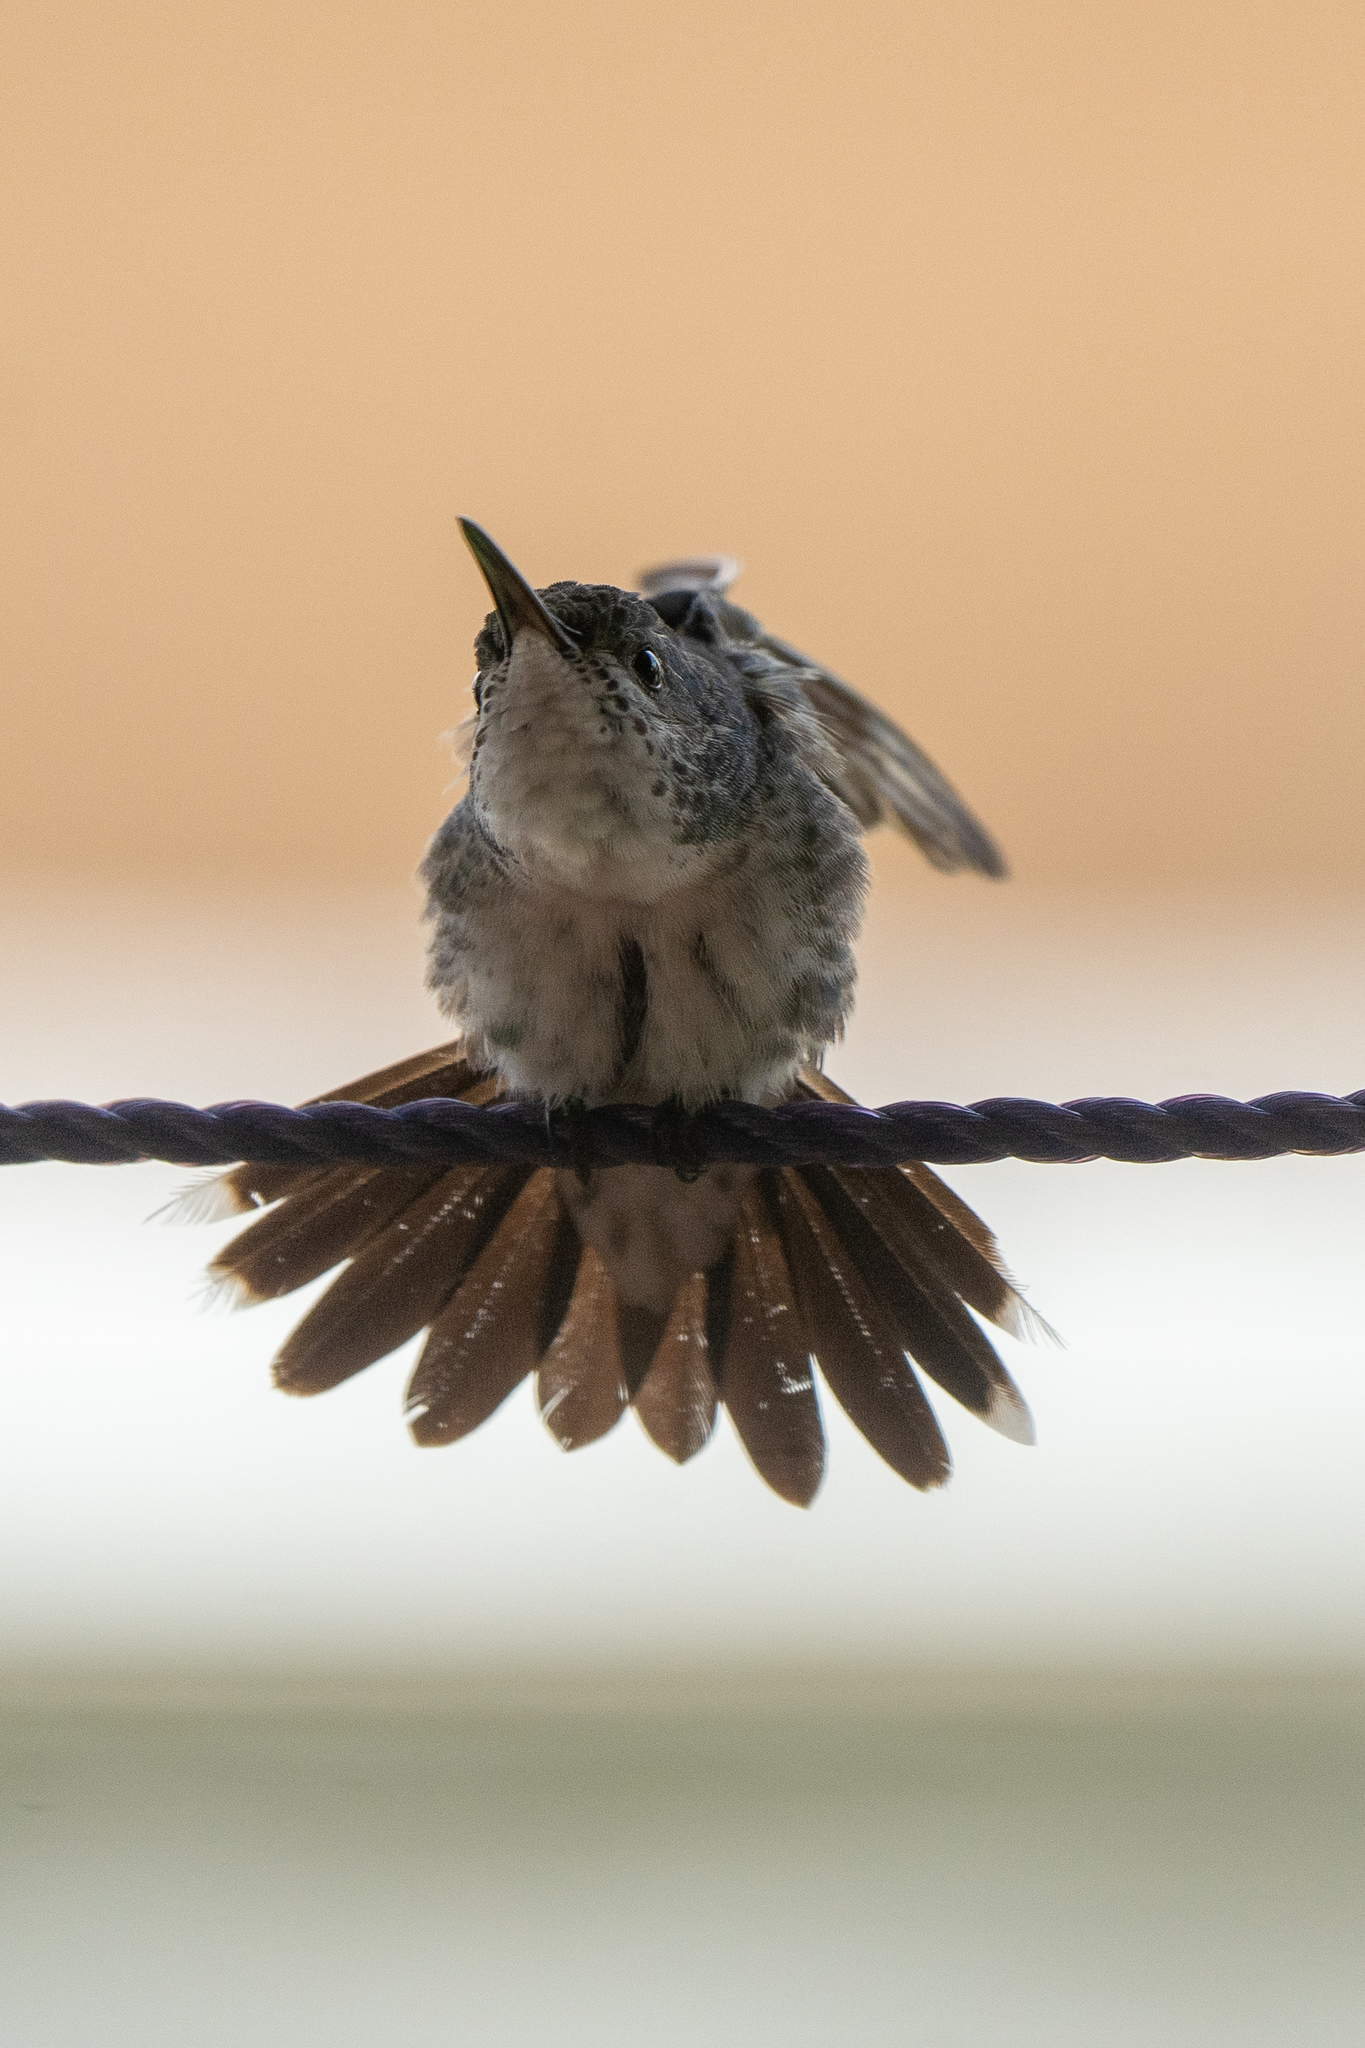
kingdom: Animalia
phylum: Chordata
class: Aves
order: Apodiformes
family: Trochilidae
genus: Chrysuronia
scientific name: Chrysuronia coeruleogularis
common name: Sapphire-throated hummingbird
